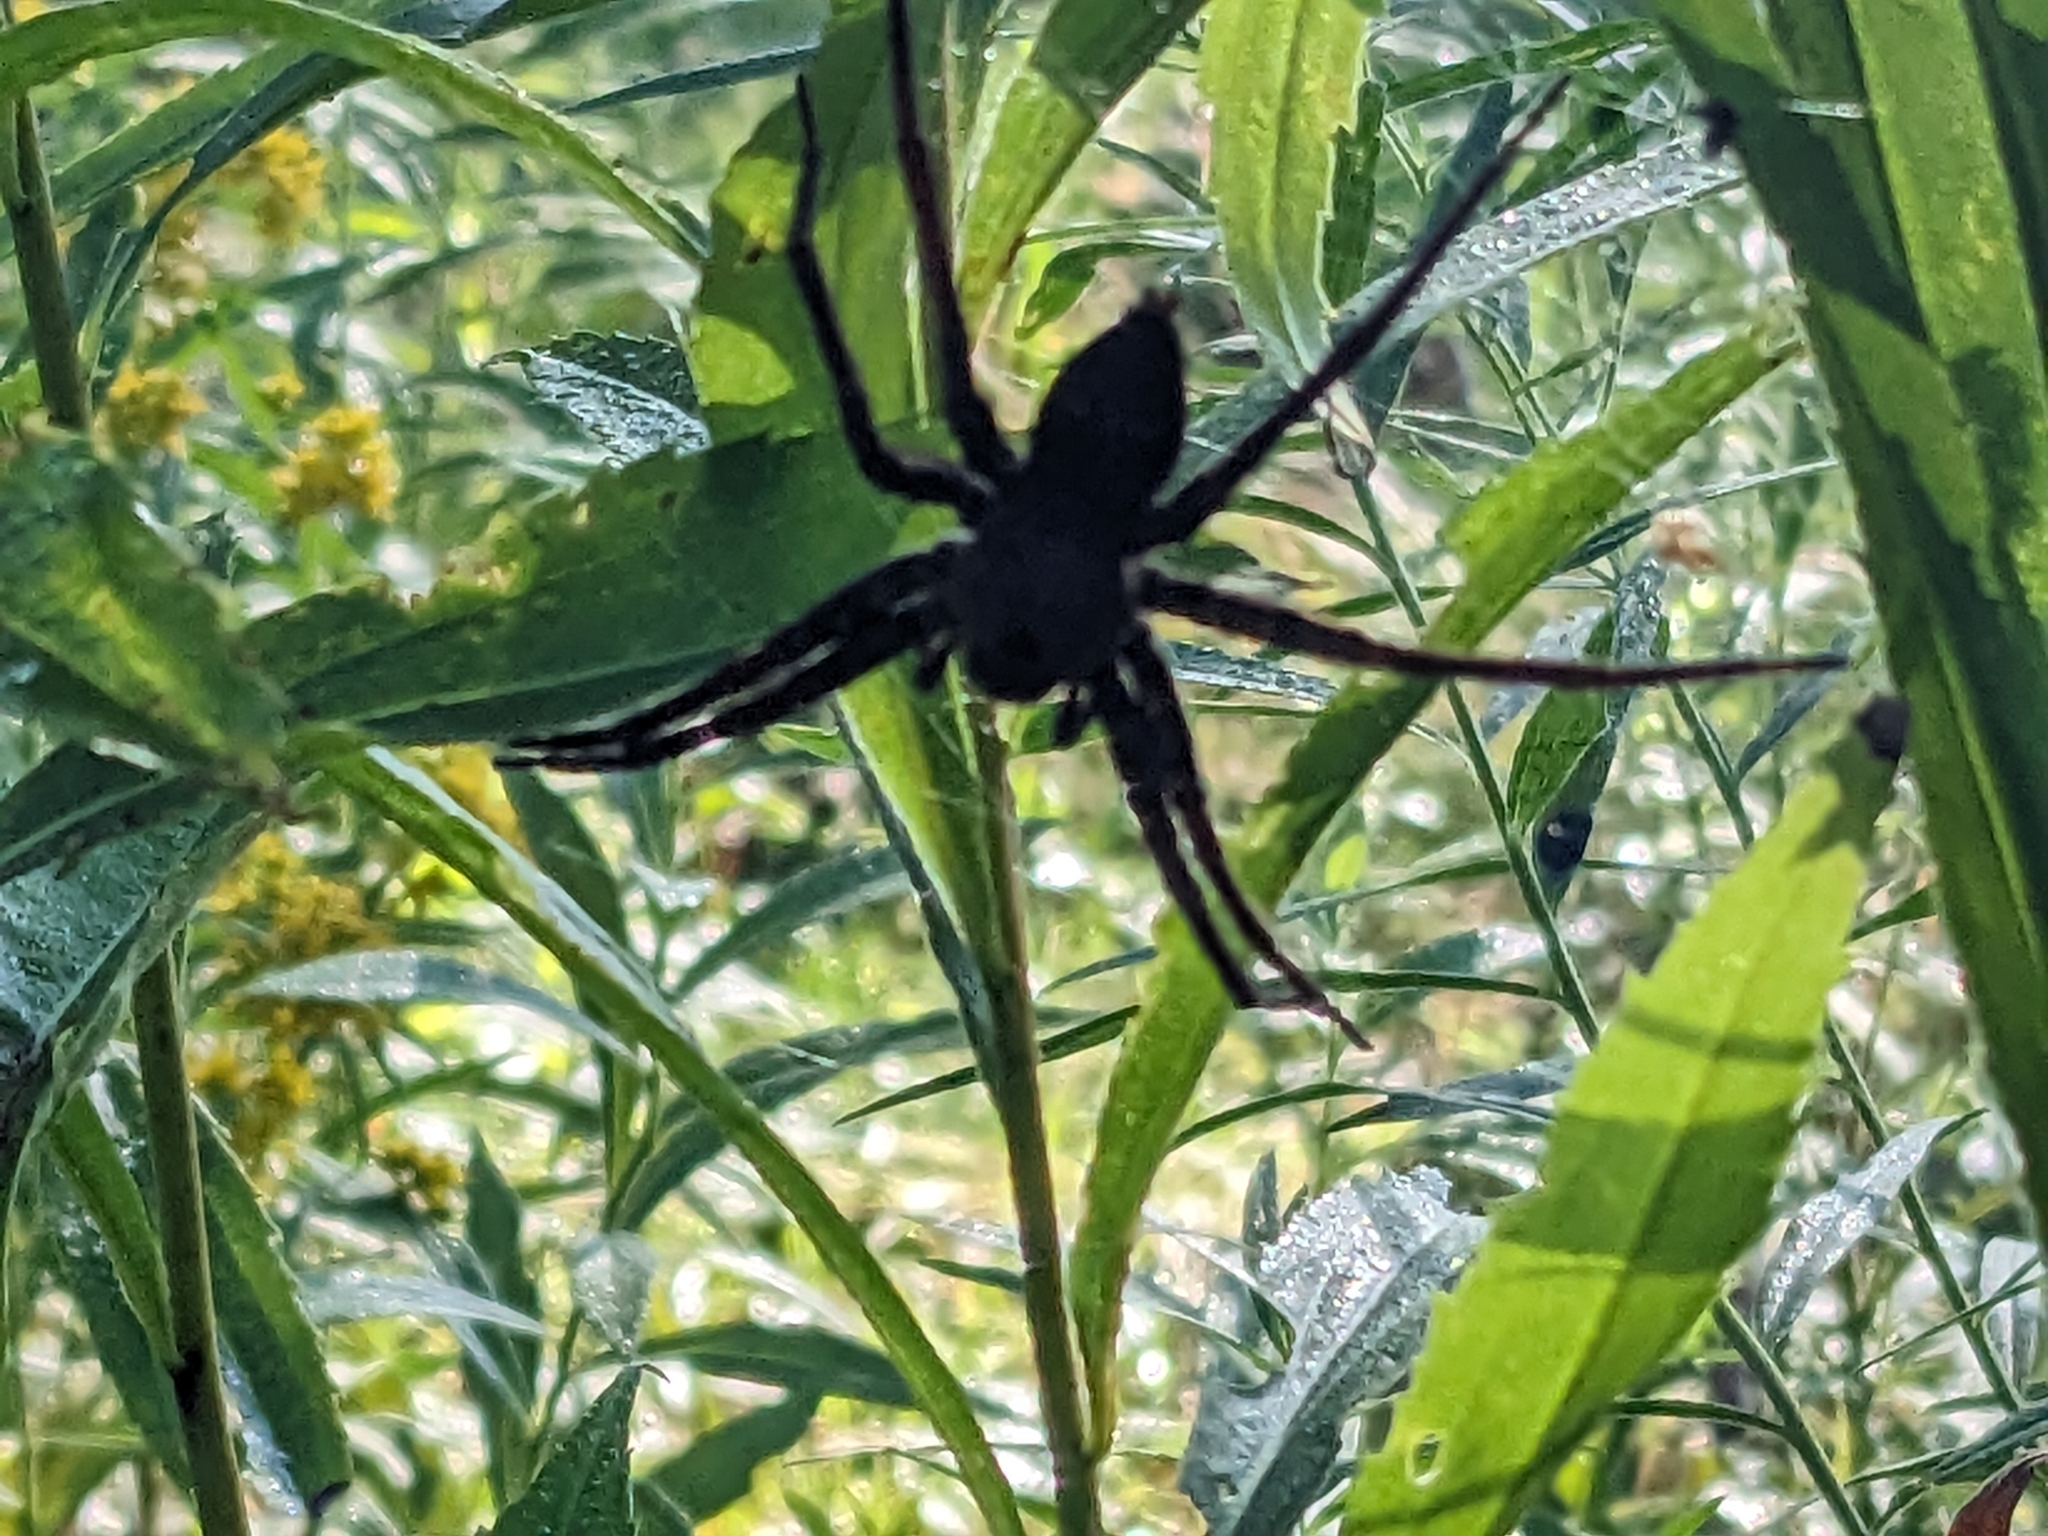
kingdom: Animalia
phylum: Arthropoda
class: Arachnida
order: Araneae
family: Pisauridae
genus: Dolomedes
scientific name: Dolomedes vittatus
